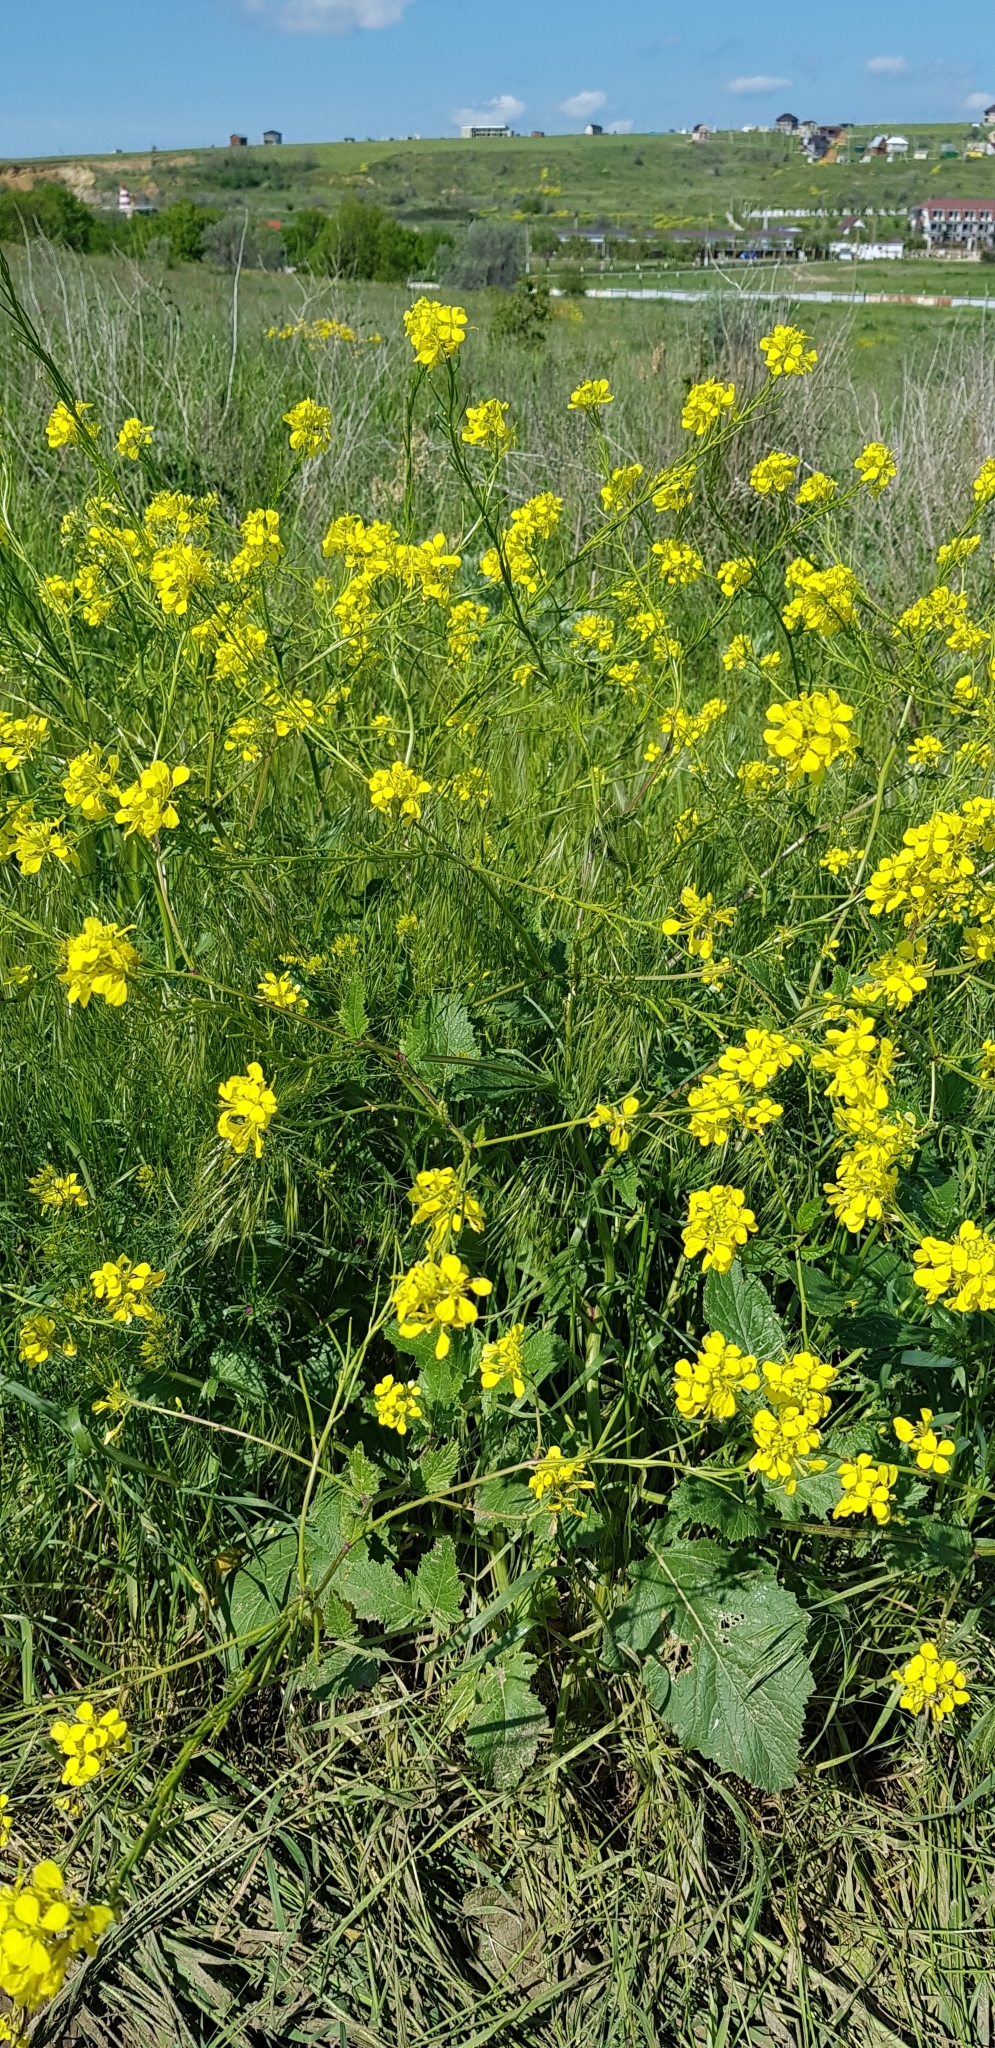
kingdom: Plantae
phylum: Tracheophyta
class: Magnoliopsida
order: Brassicales
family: Brassicaceae
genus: Sinapis
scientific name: Sinapis arvensis
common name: Charlock
